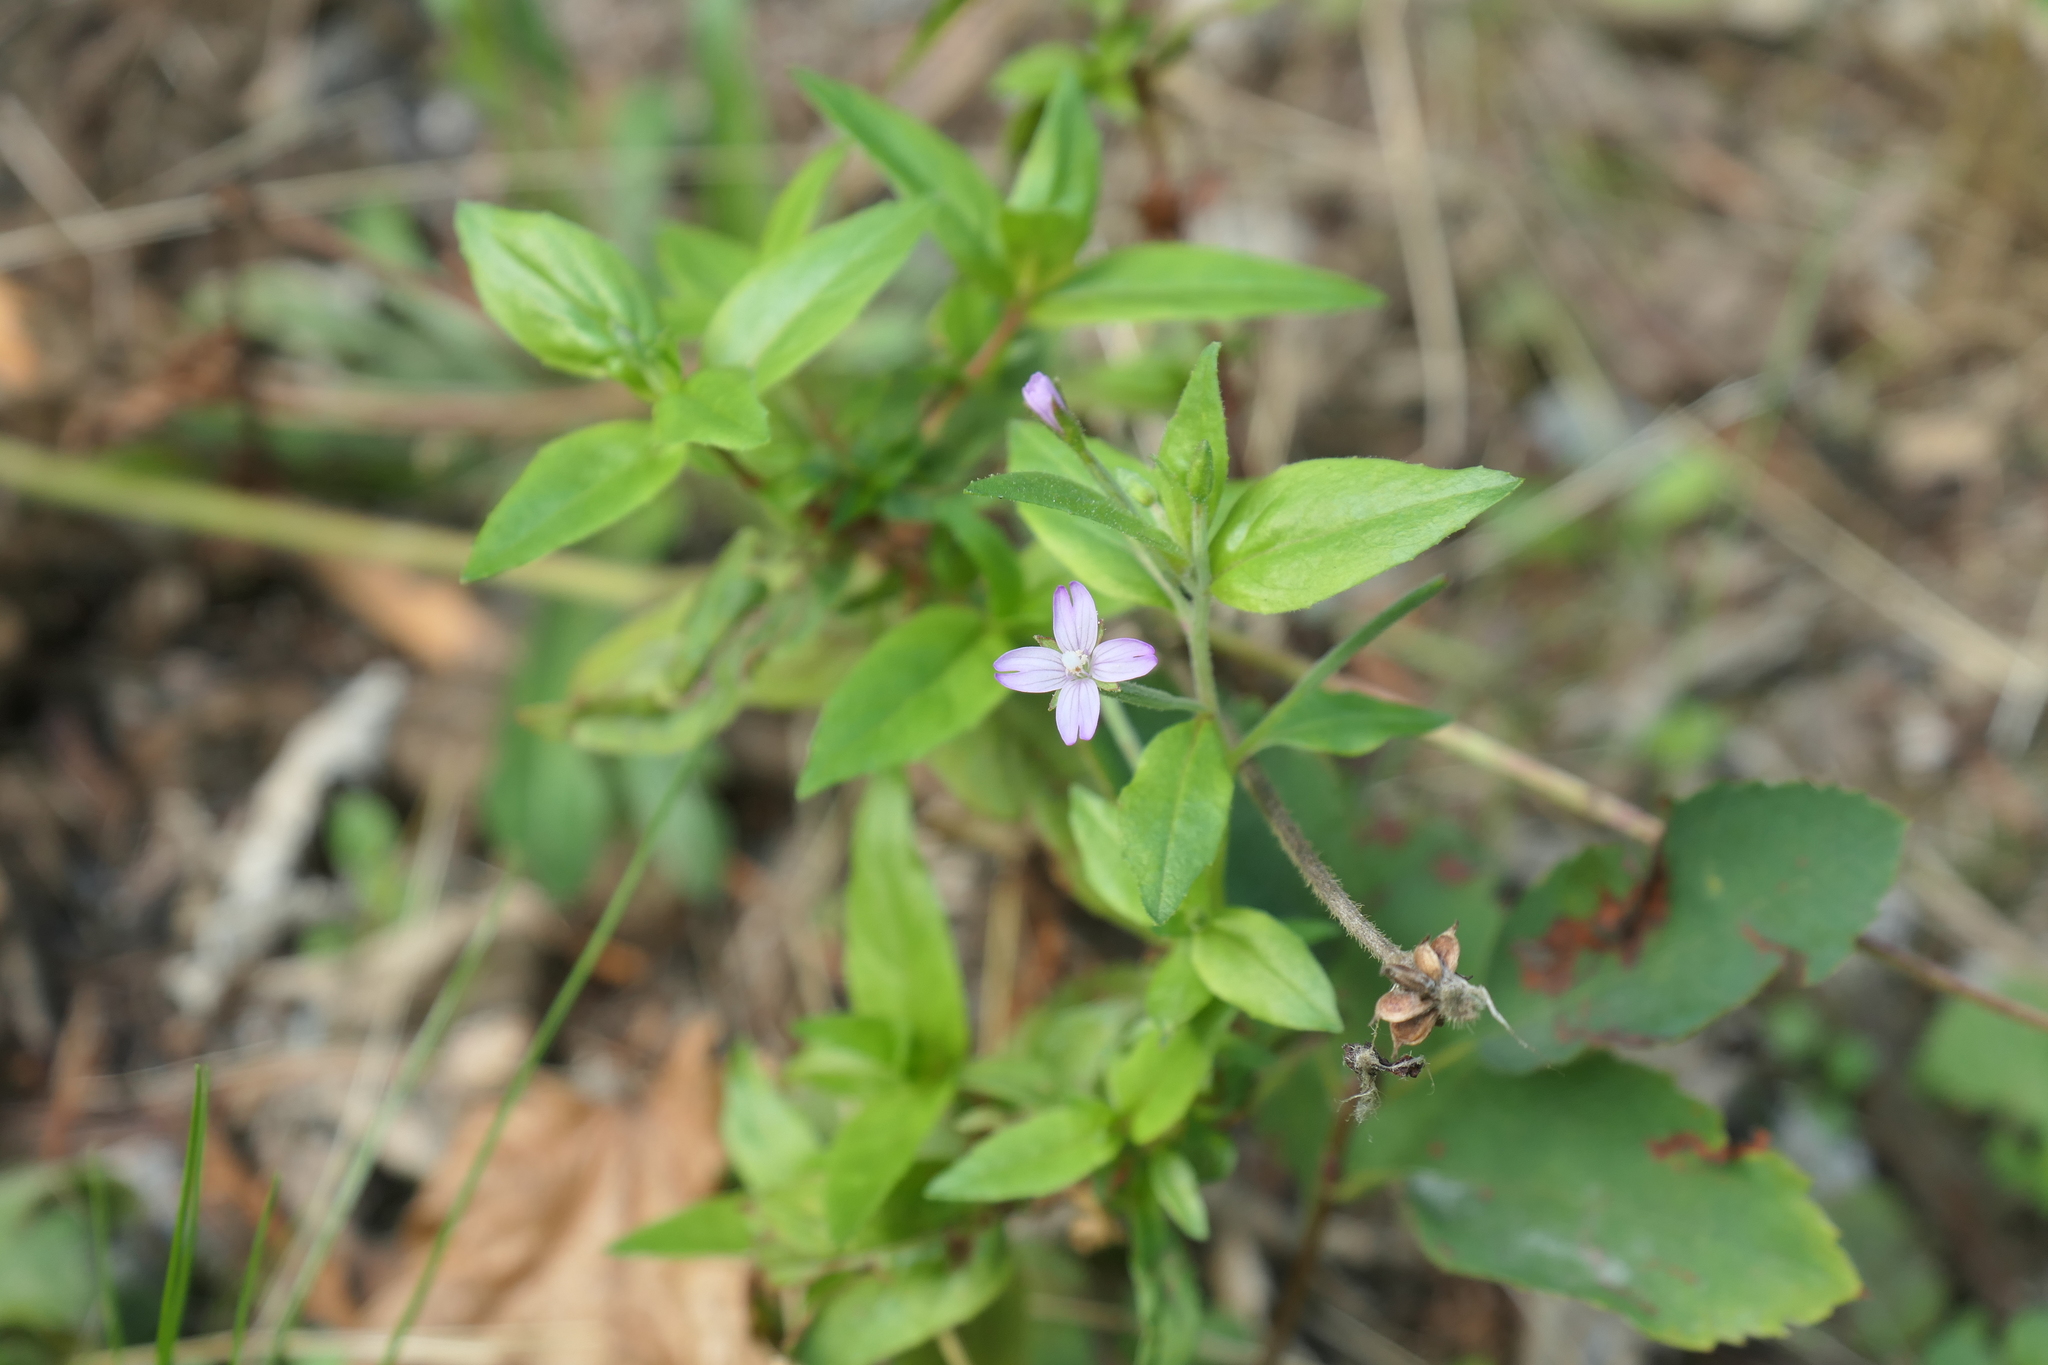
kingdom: Plantae
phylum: Tracheophyta
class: Magnoliopsida
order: Myrtales
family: Onagraceae
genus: Epilobium
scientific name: Epilobium ciliatum
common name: American willowherb
